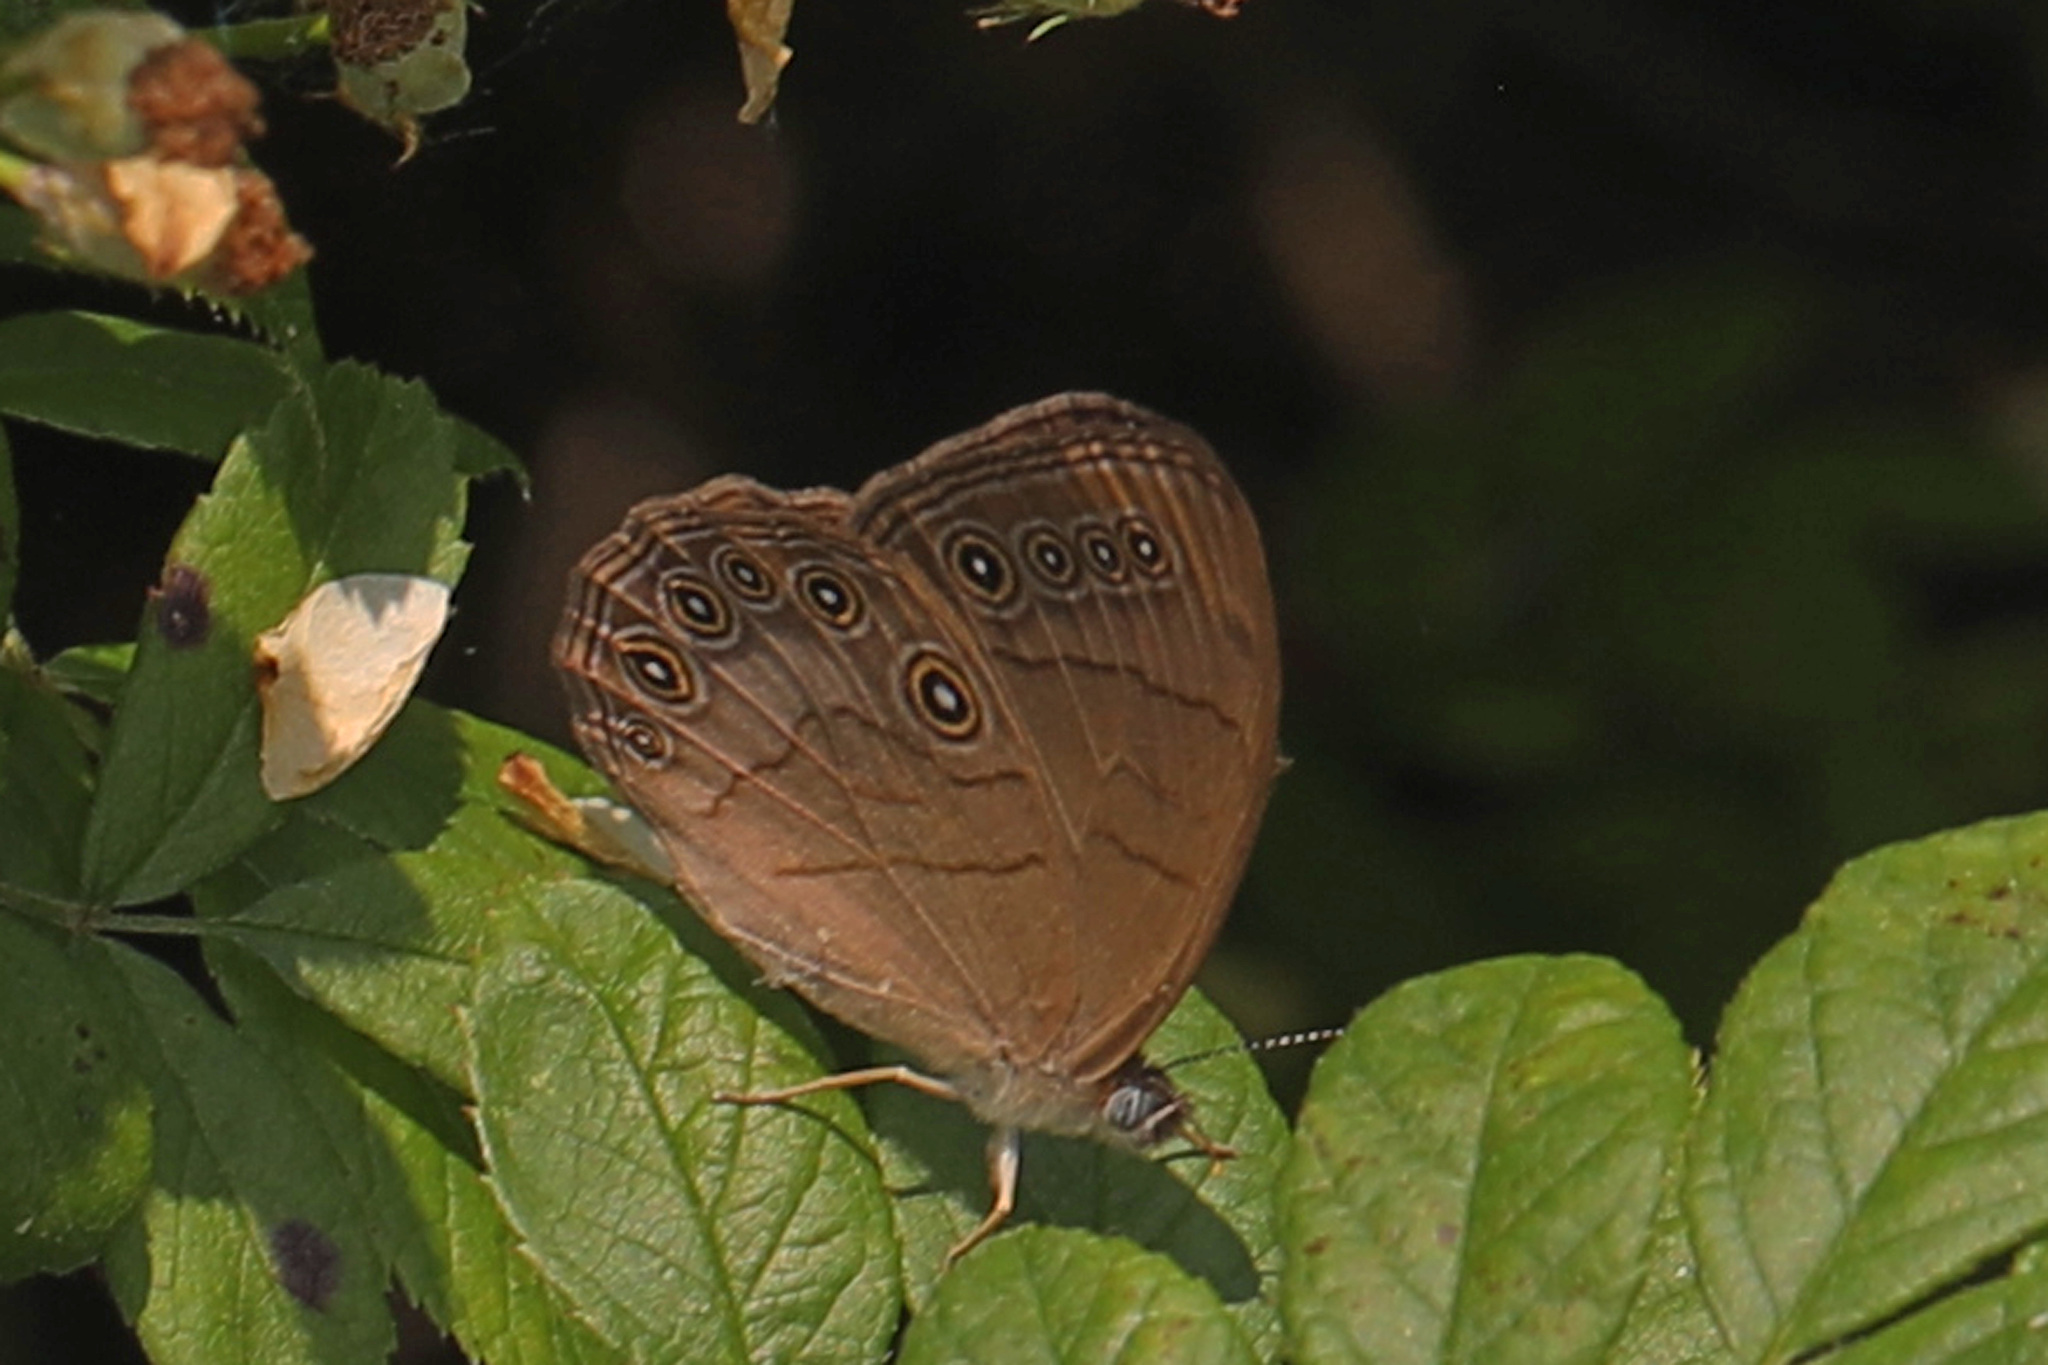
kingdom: Animalia
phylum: Arthropoda
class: Insecta
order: Lepidoptera
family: Nymphalidae
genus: Lethe
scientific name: Lethe eurydice
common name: Eyed brown
